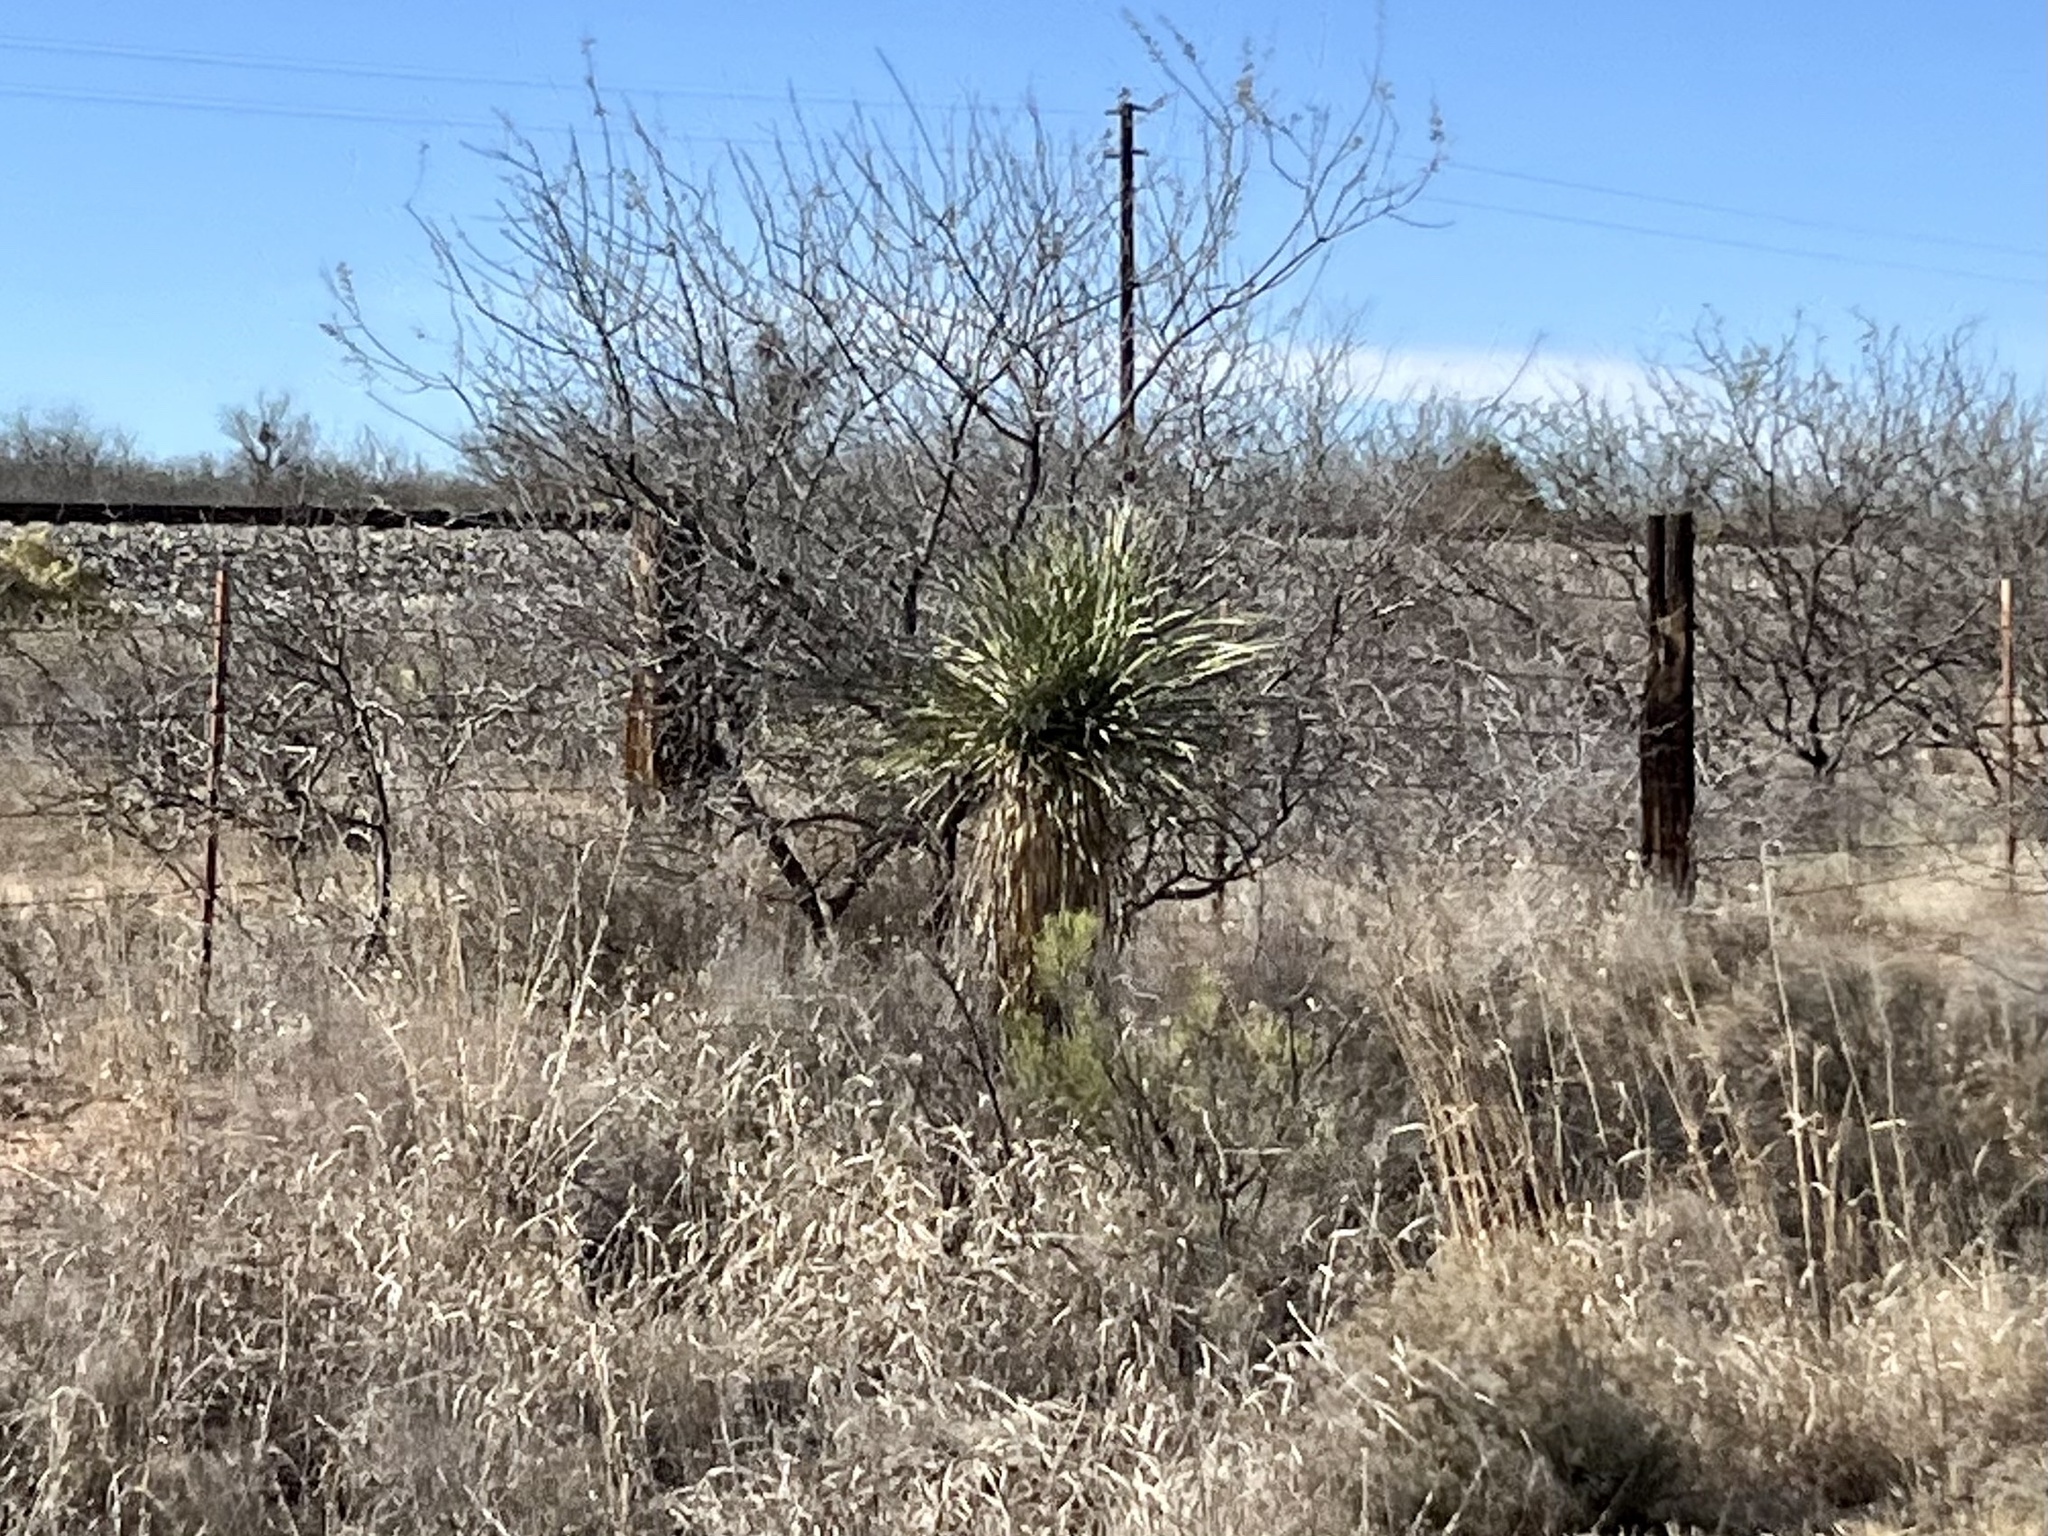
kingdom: Plantae
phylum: Tracheophyta
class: Liliopsida
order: Asparagales
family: Asparagaceae
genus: Yucca
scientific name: Yucca elata
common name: Palmella
